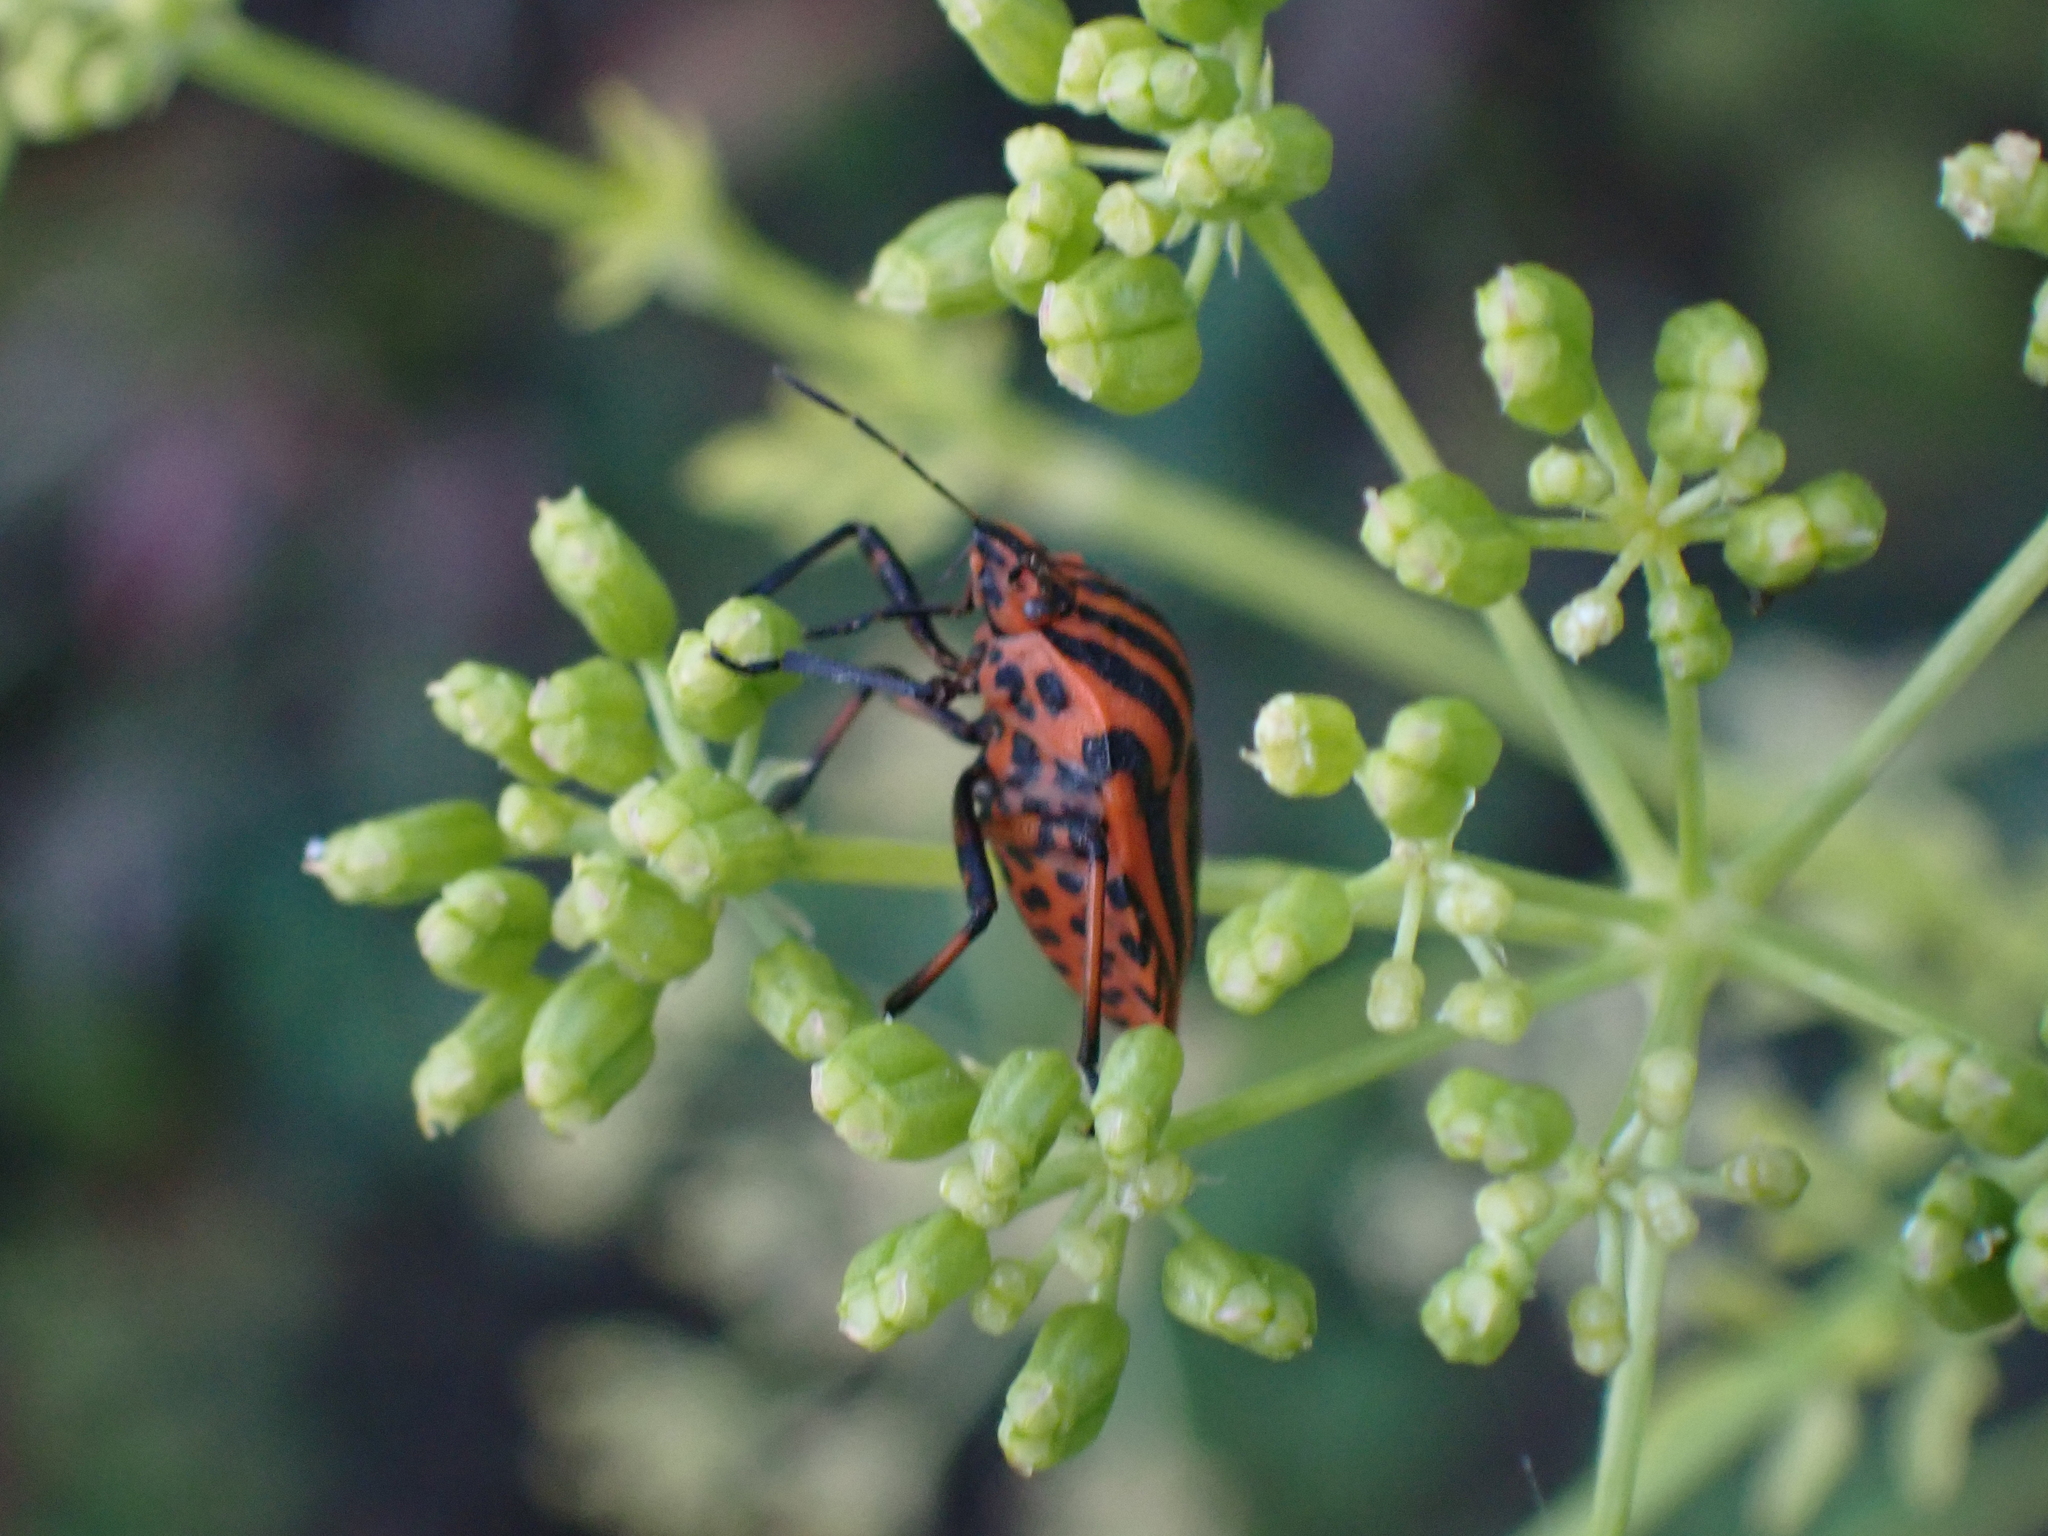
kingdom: Animalia
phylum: Arthropoda
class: Insecta
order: Hemiptera
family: Pentatomidae
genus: Graphosoma
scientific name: Graphosoma italicum
